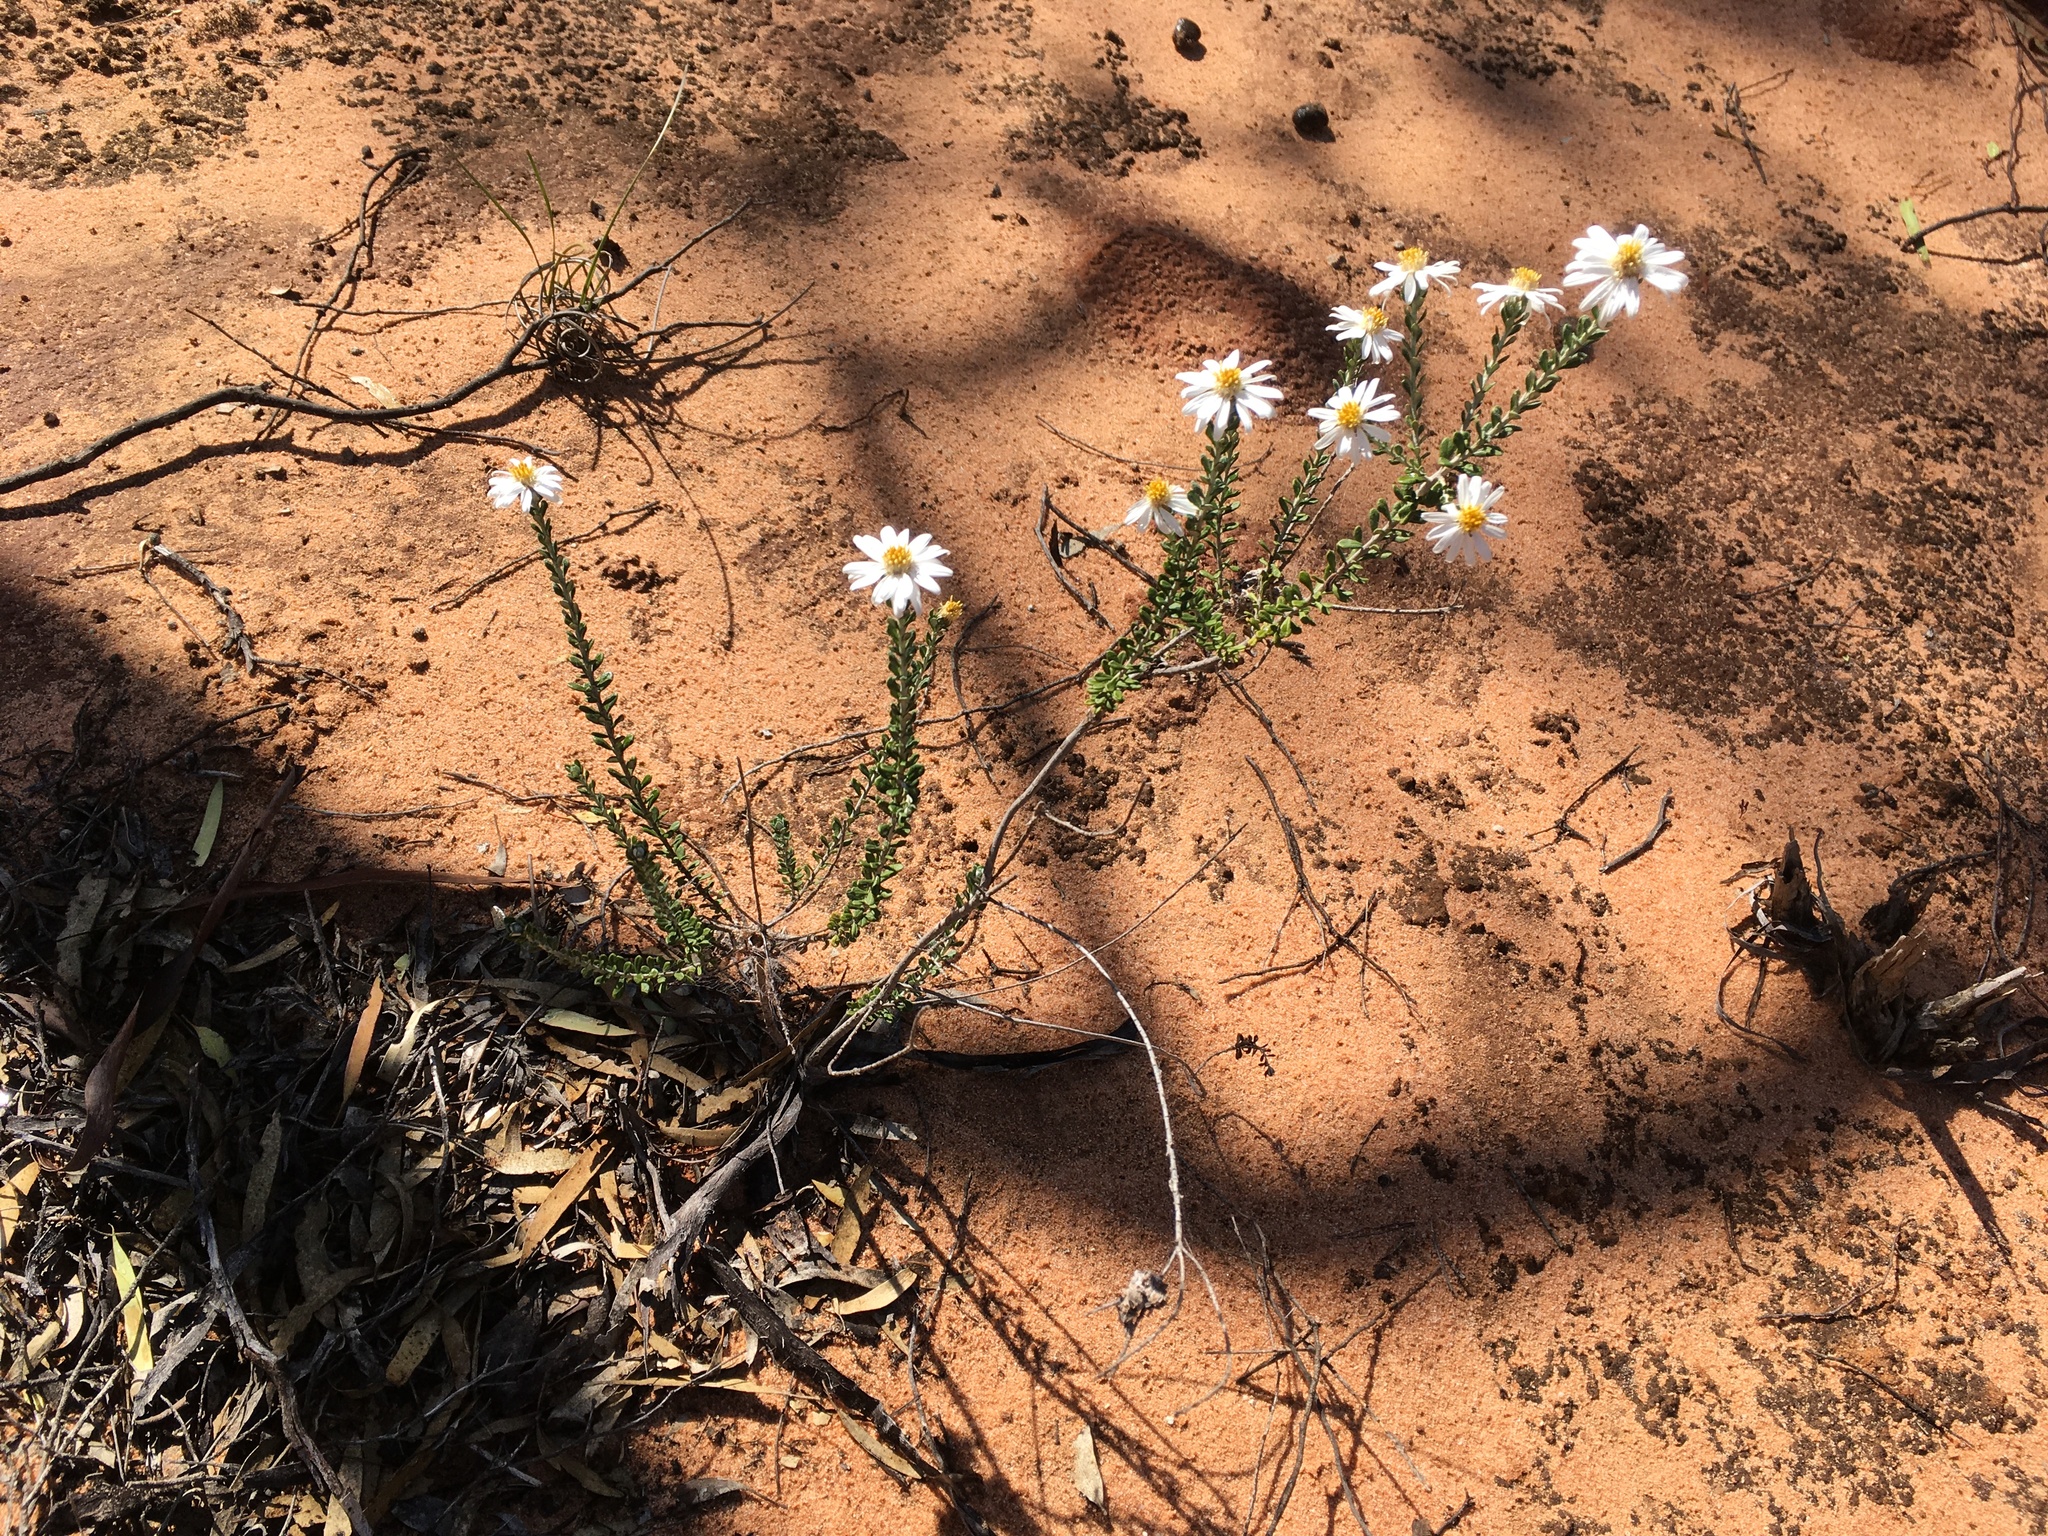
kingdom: Plantae
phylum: Tracheophyta
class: Magnoliopsida
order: Asterales
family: Asteraceae
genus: Olearia
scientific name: Olearia pimeleoides
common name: Showy daisybush
